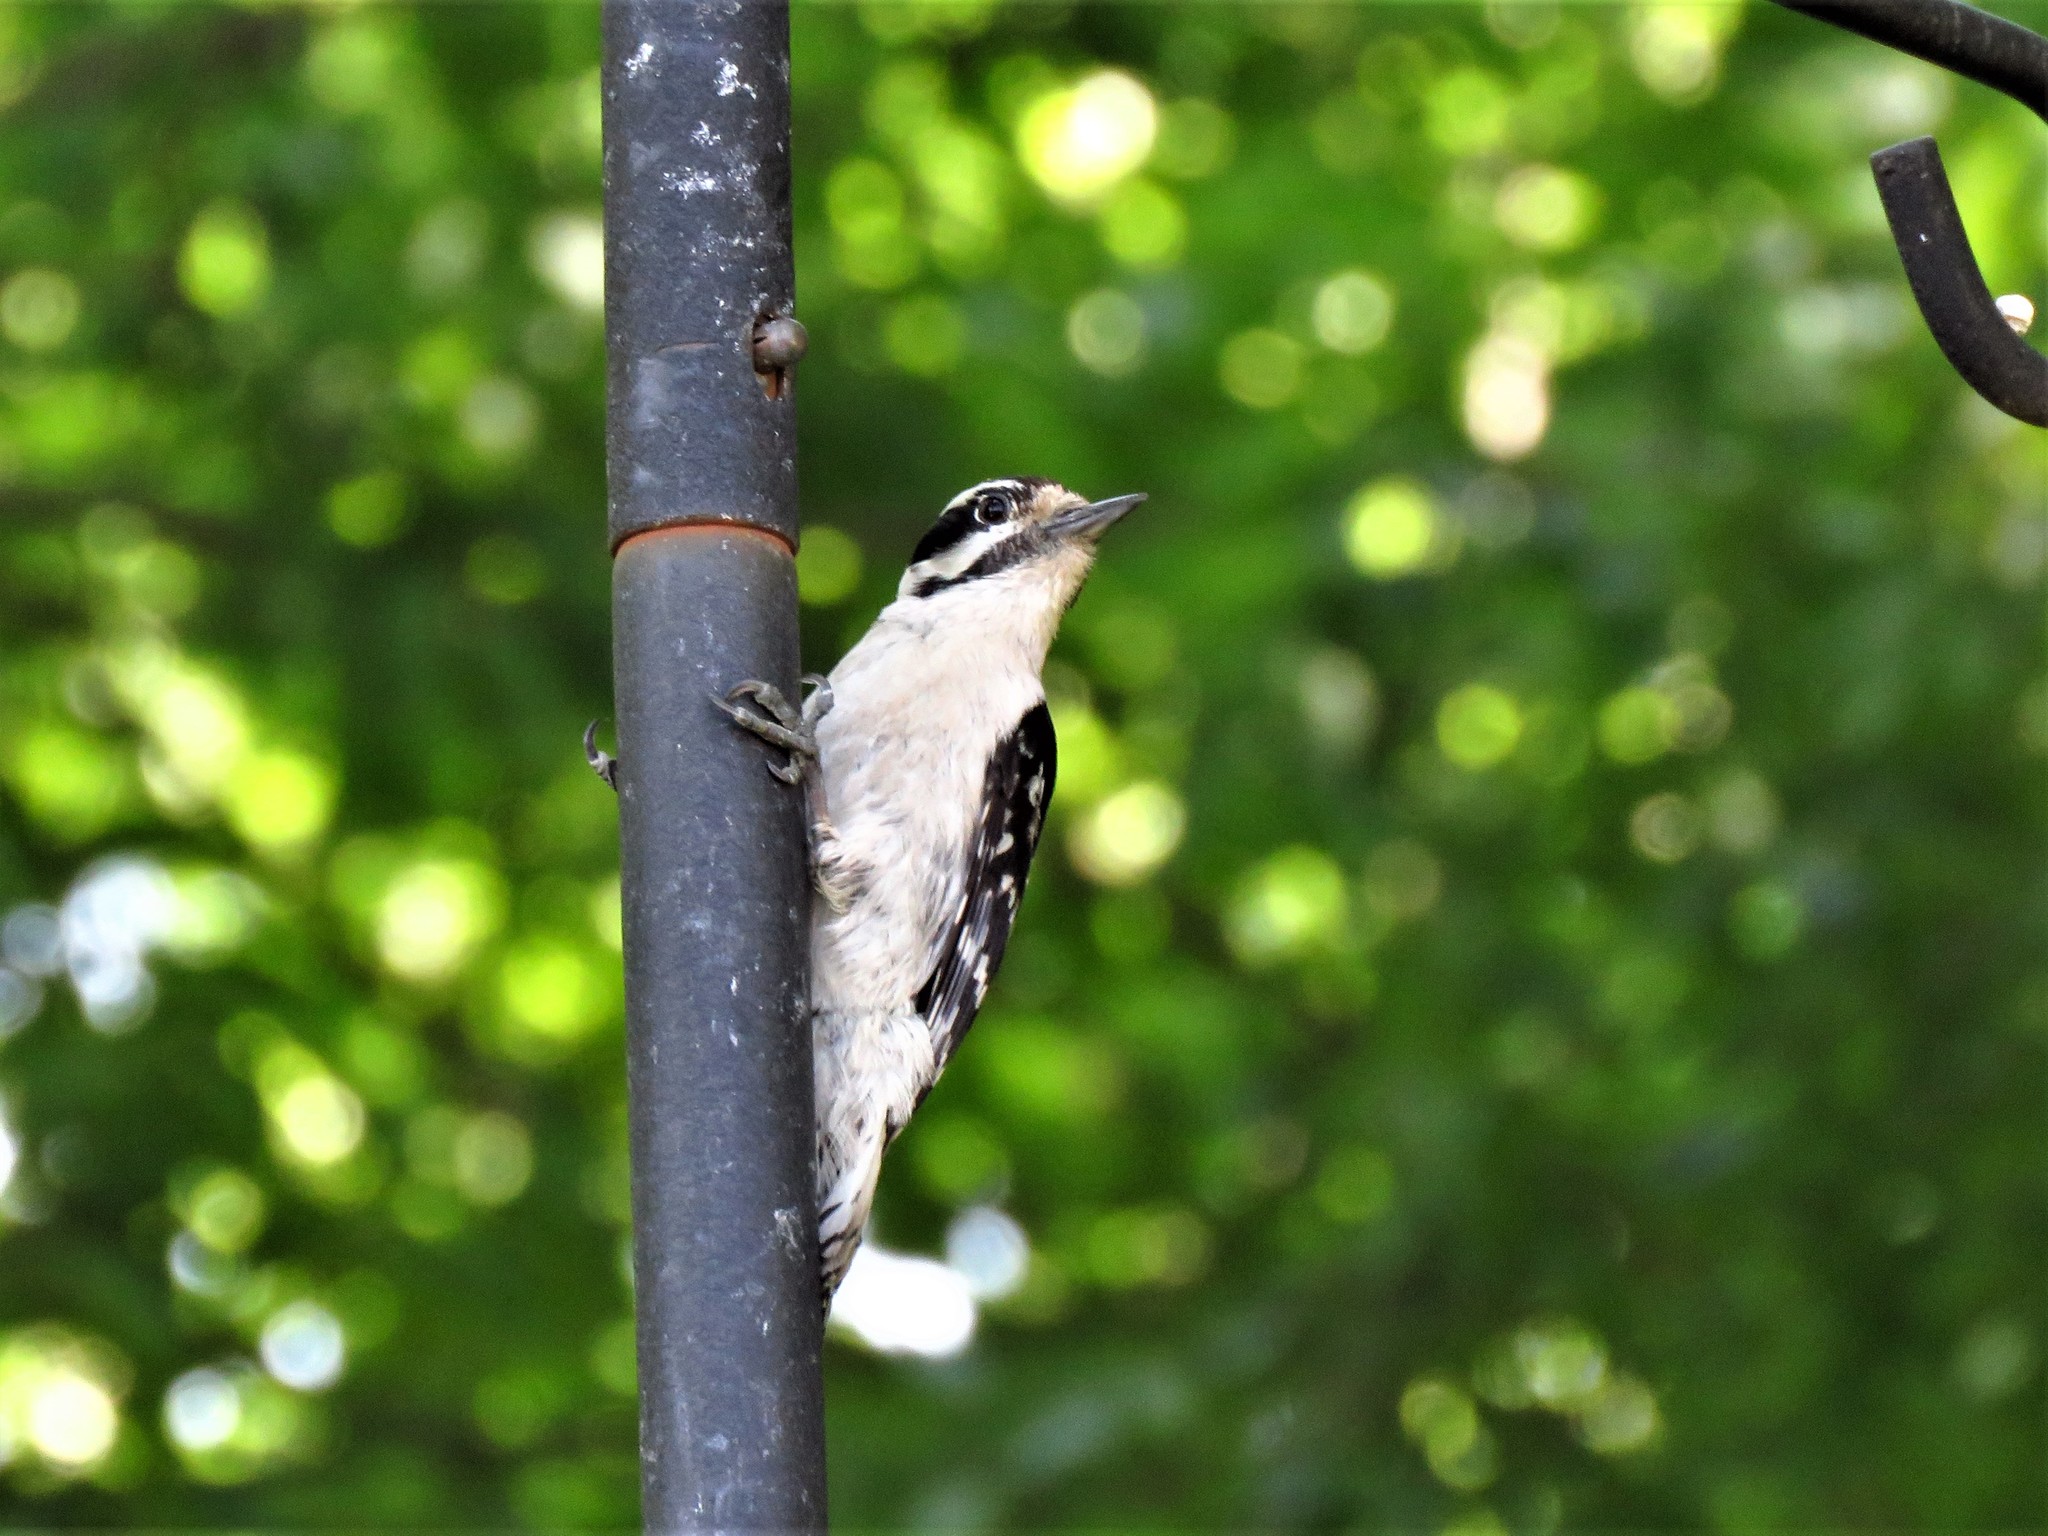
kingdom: Animalia
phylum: Chordata
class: Aves
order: Piciformes
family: Picidae
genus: Dryobates
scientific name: Dryobates pubescens
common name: Downy woodpecker
